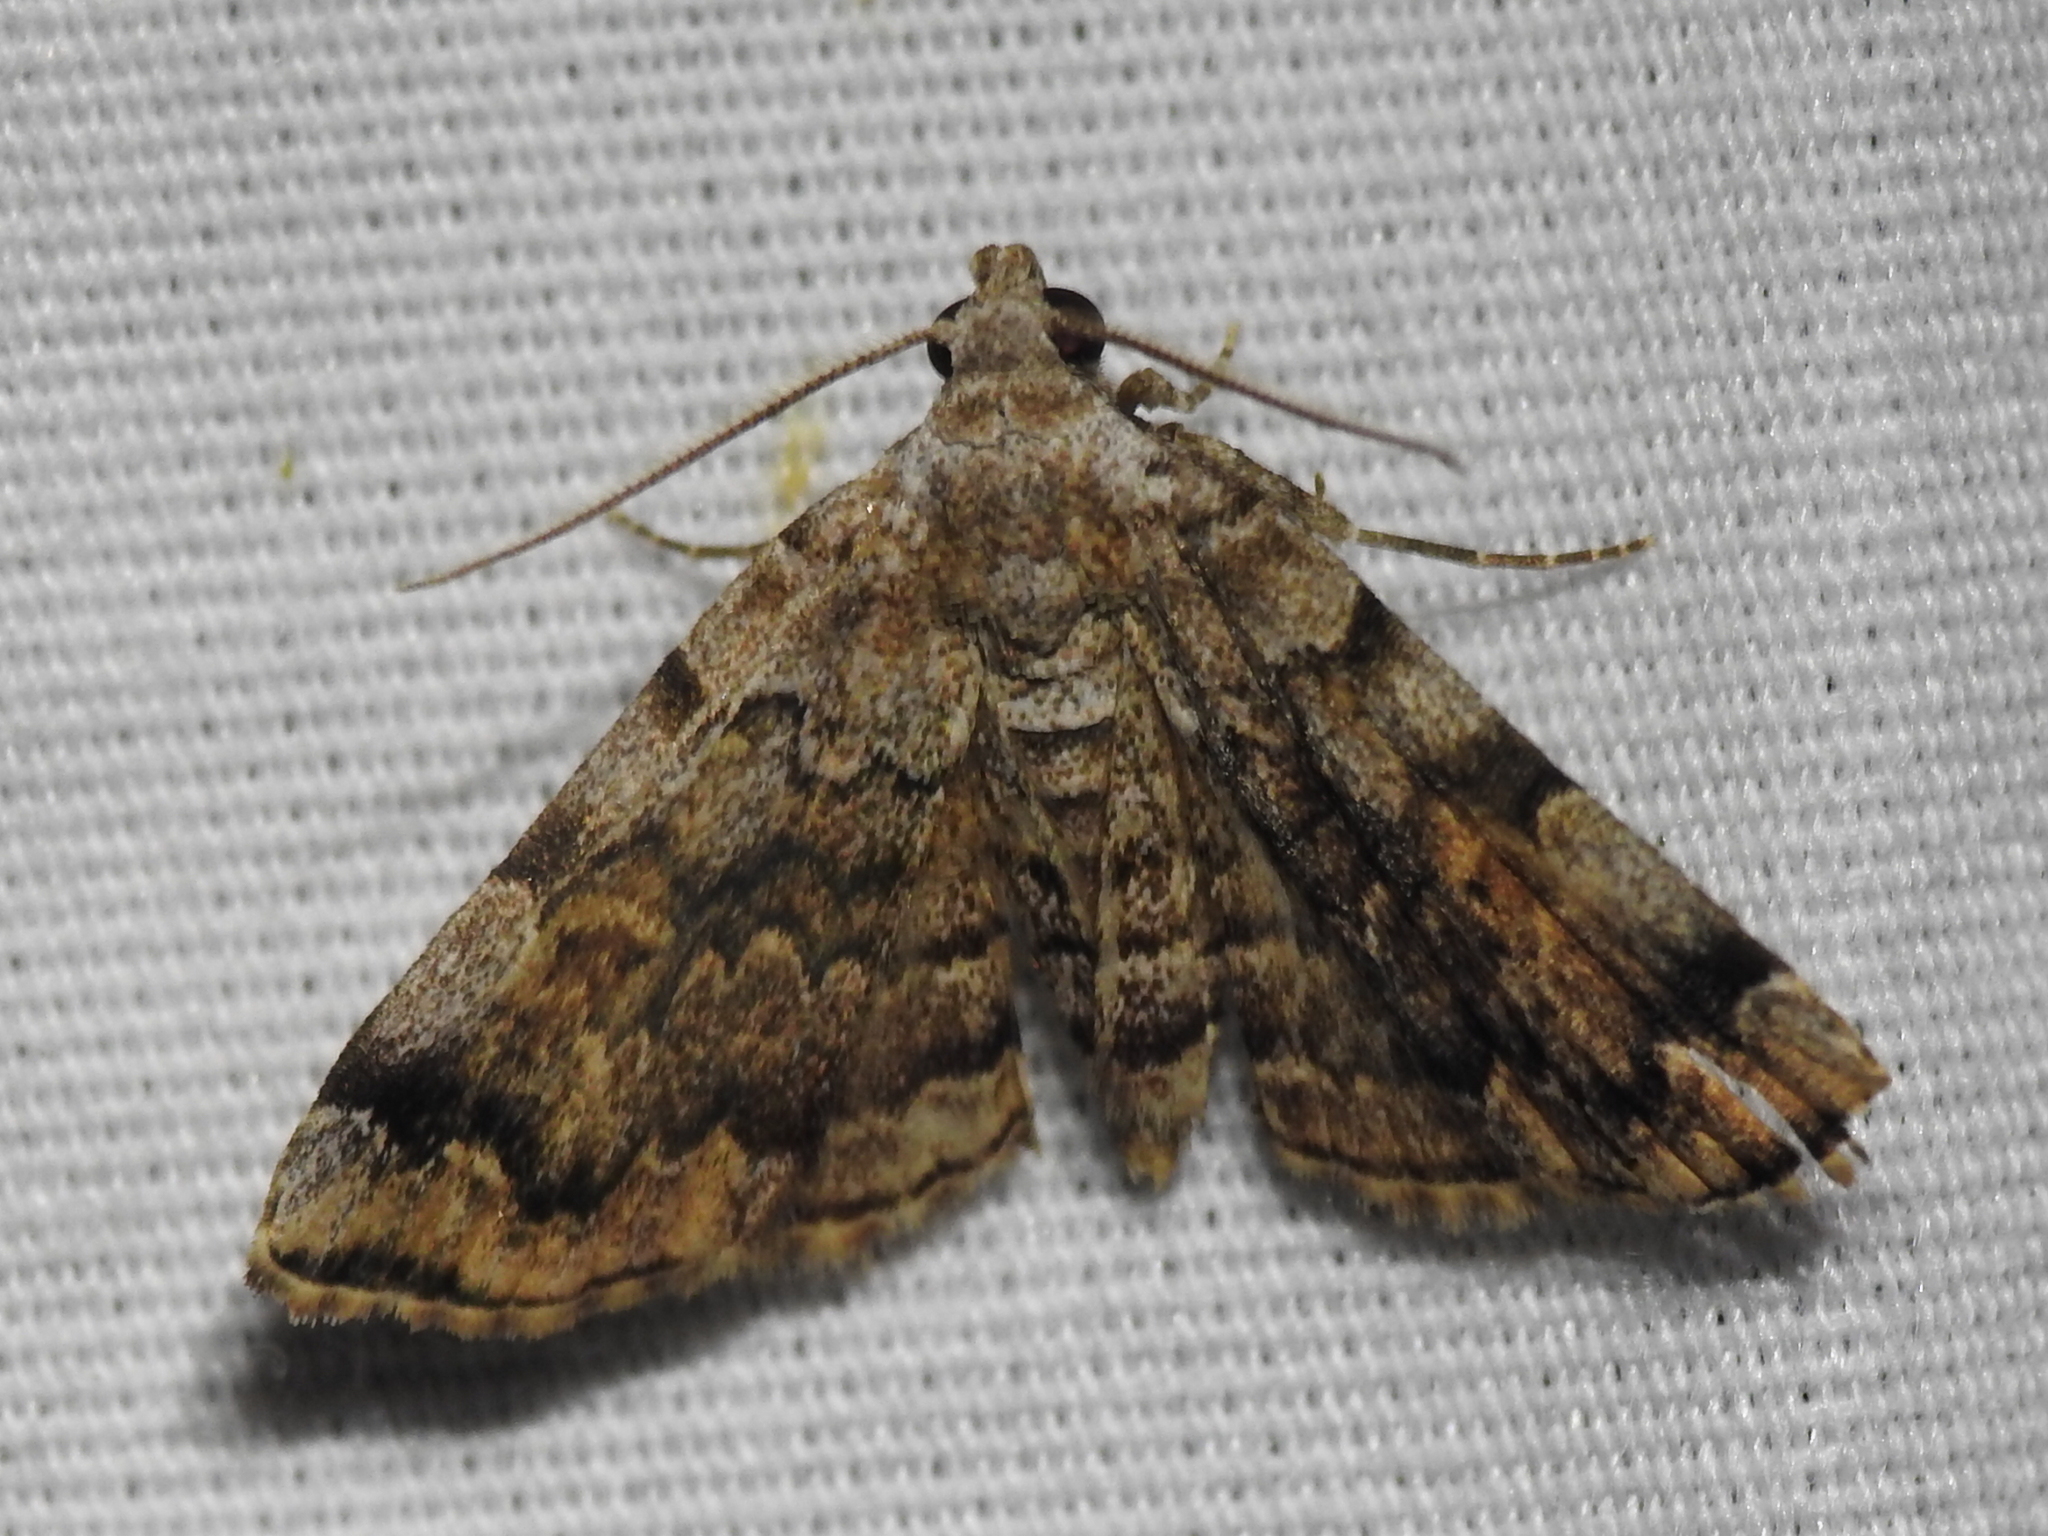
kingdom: Animalia
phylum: Arthropoda
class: Insecta
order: Lepidoptera
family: Erebidae
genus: Idia
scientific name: Idia americalis
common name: American idia moth
